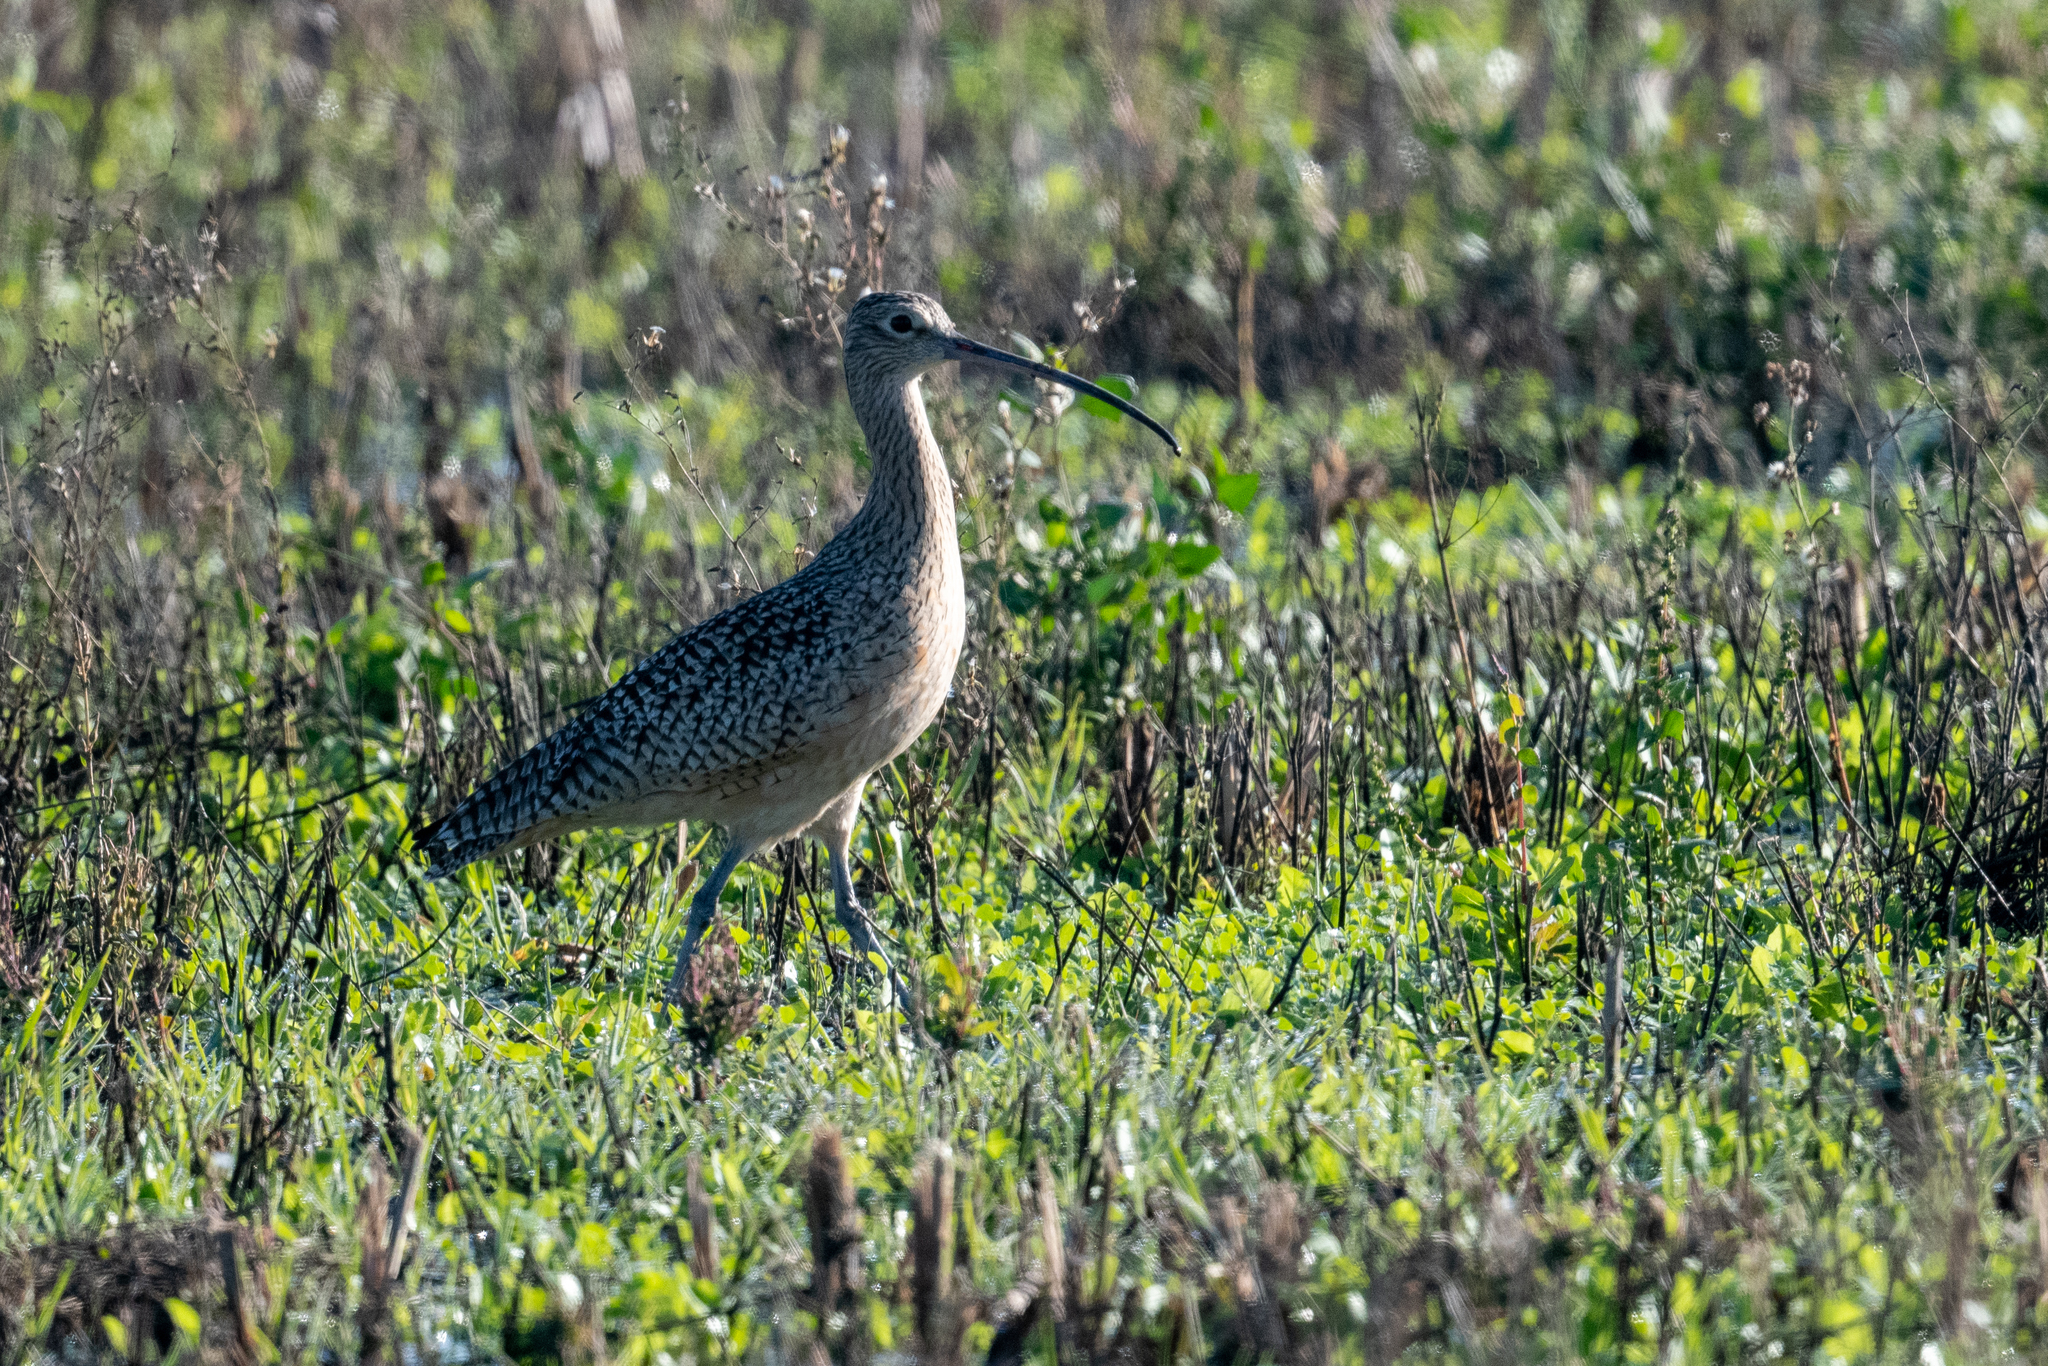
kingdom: Animalia
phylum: Chordata
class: Aves
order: Charadriiformes
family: Scolopacidae
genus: Numenius
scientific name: Numenius americanus
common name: Long-billed curlew
